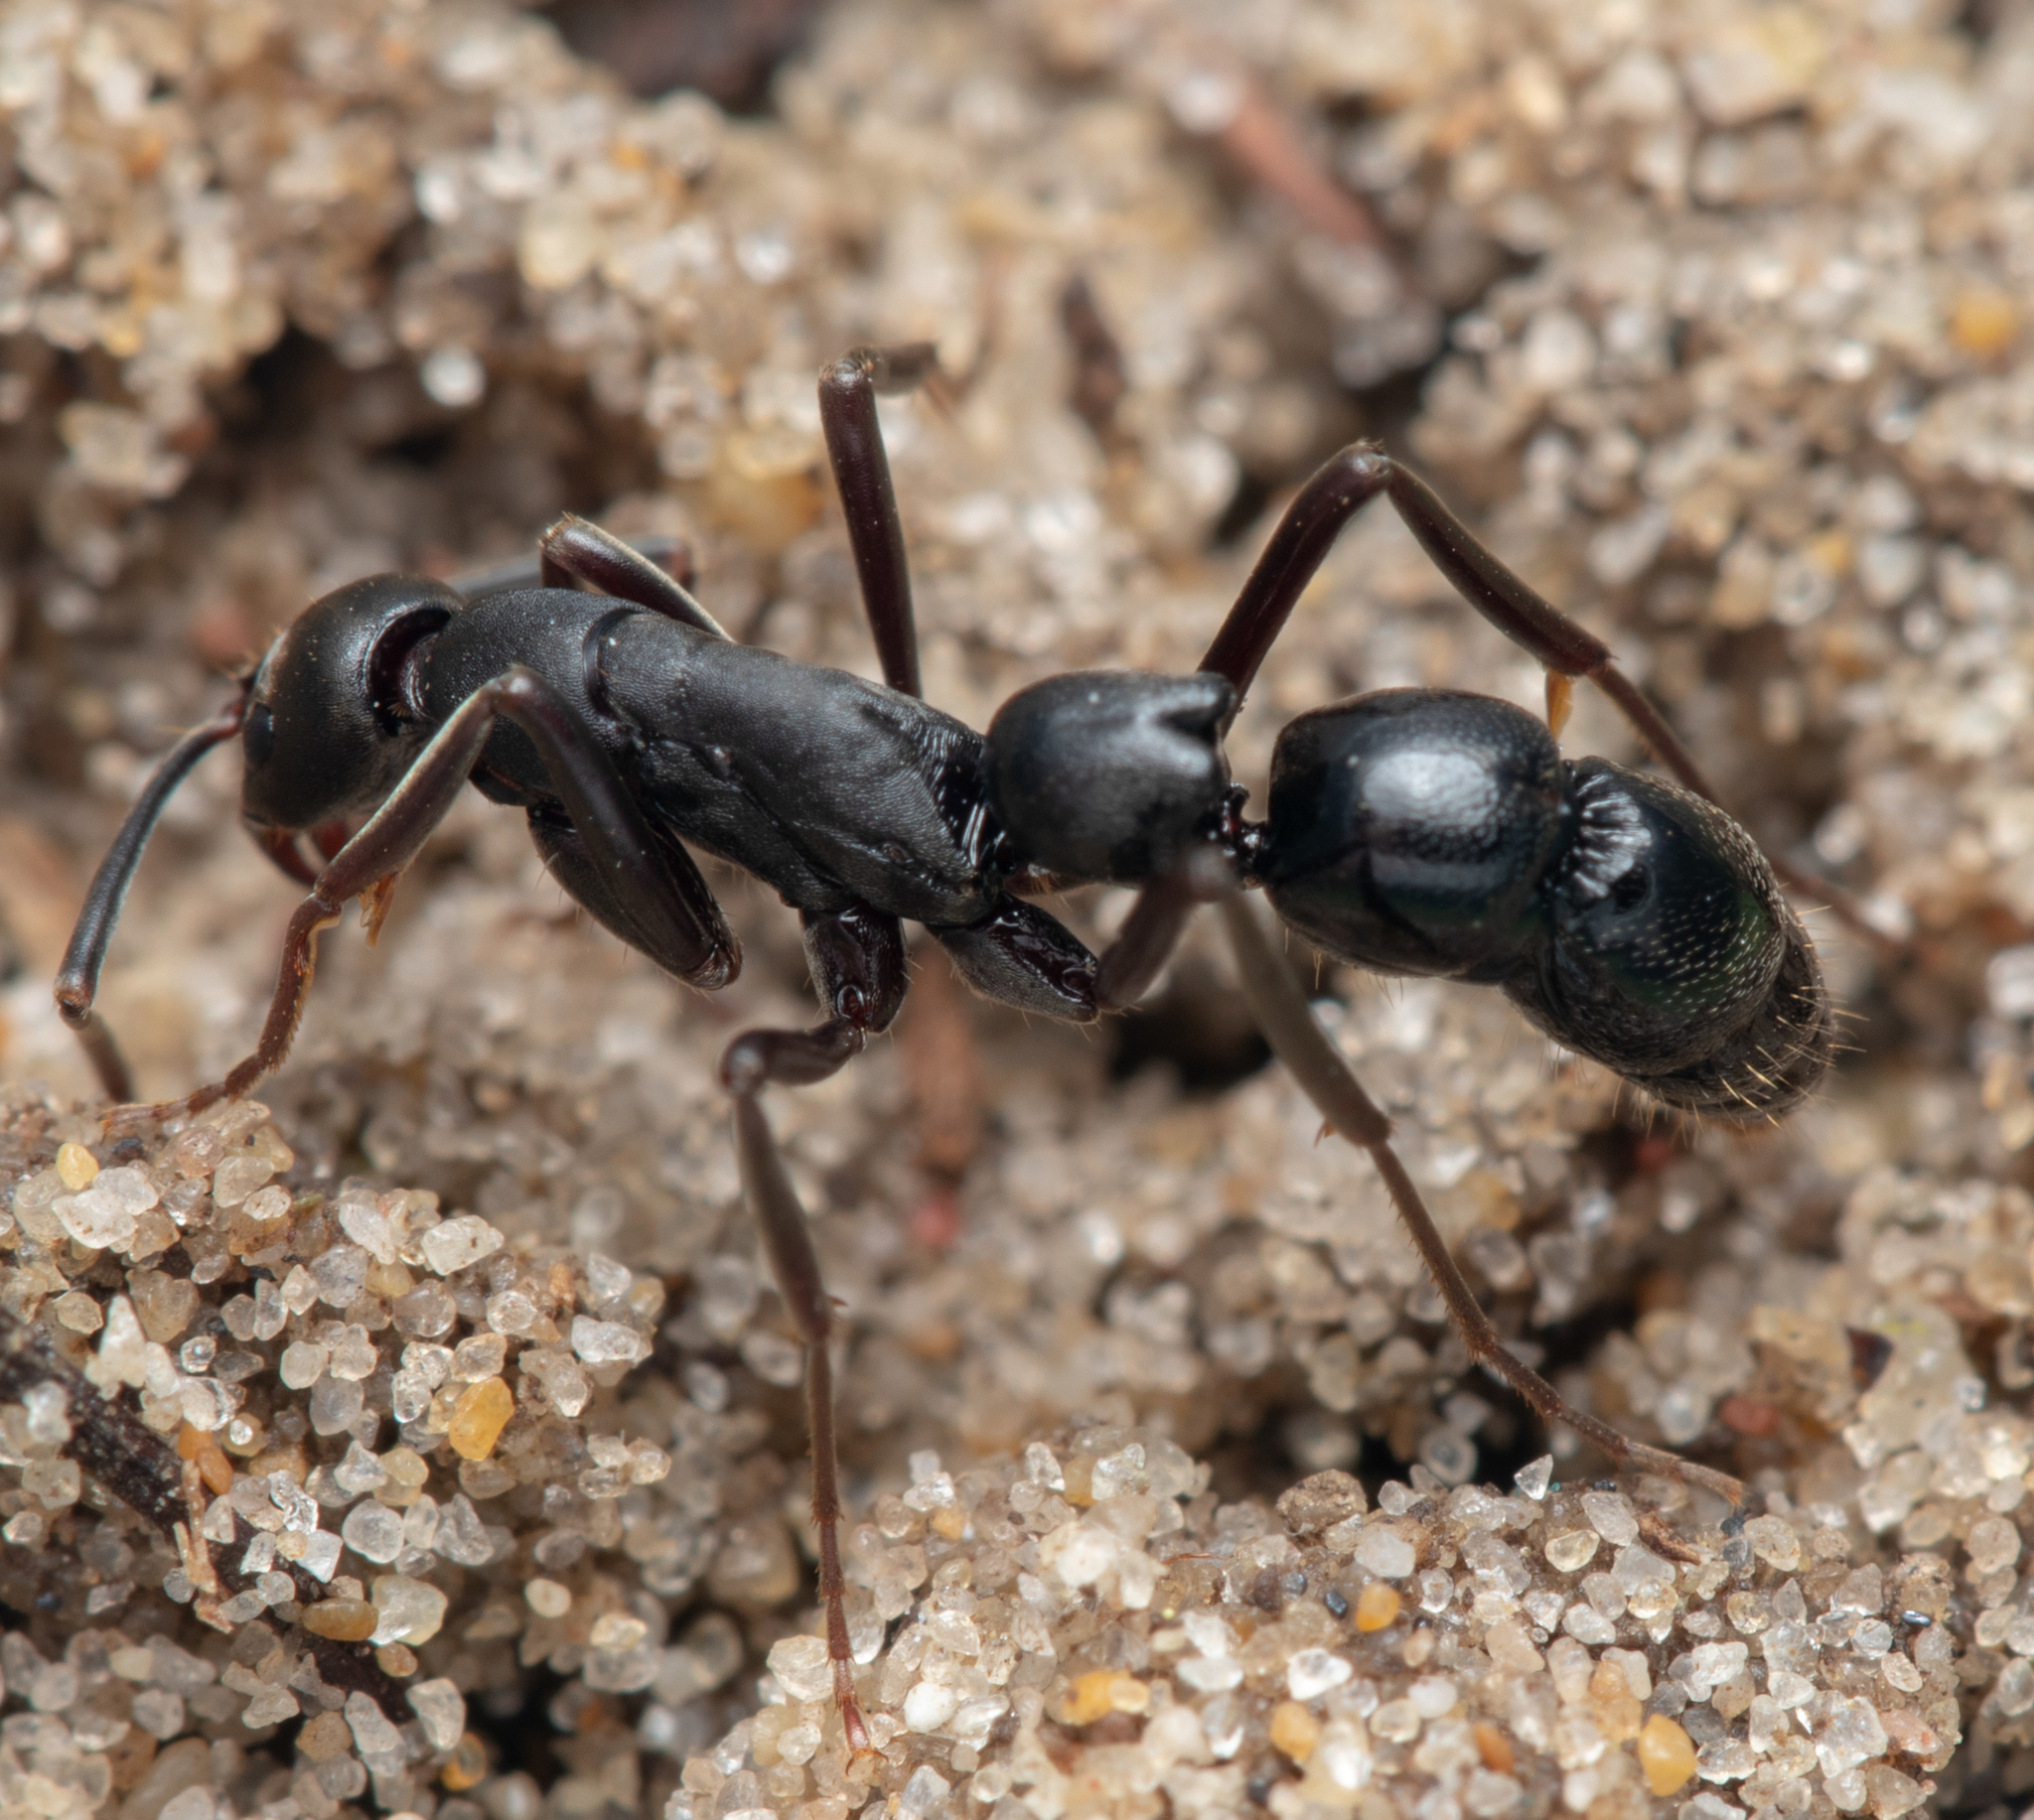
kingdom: Animalia
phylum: Arthropoda
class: Insecta
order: Hymenoptera
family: Formicidae
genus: Leptogenys
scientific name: Leptogenys excisa
